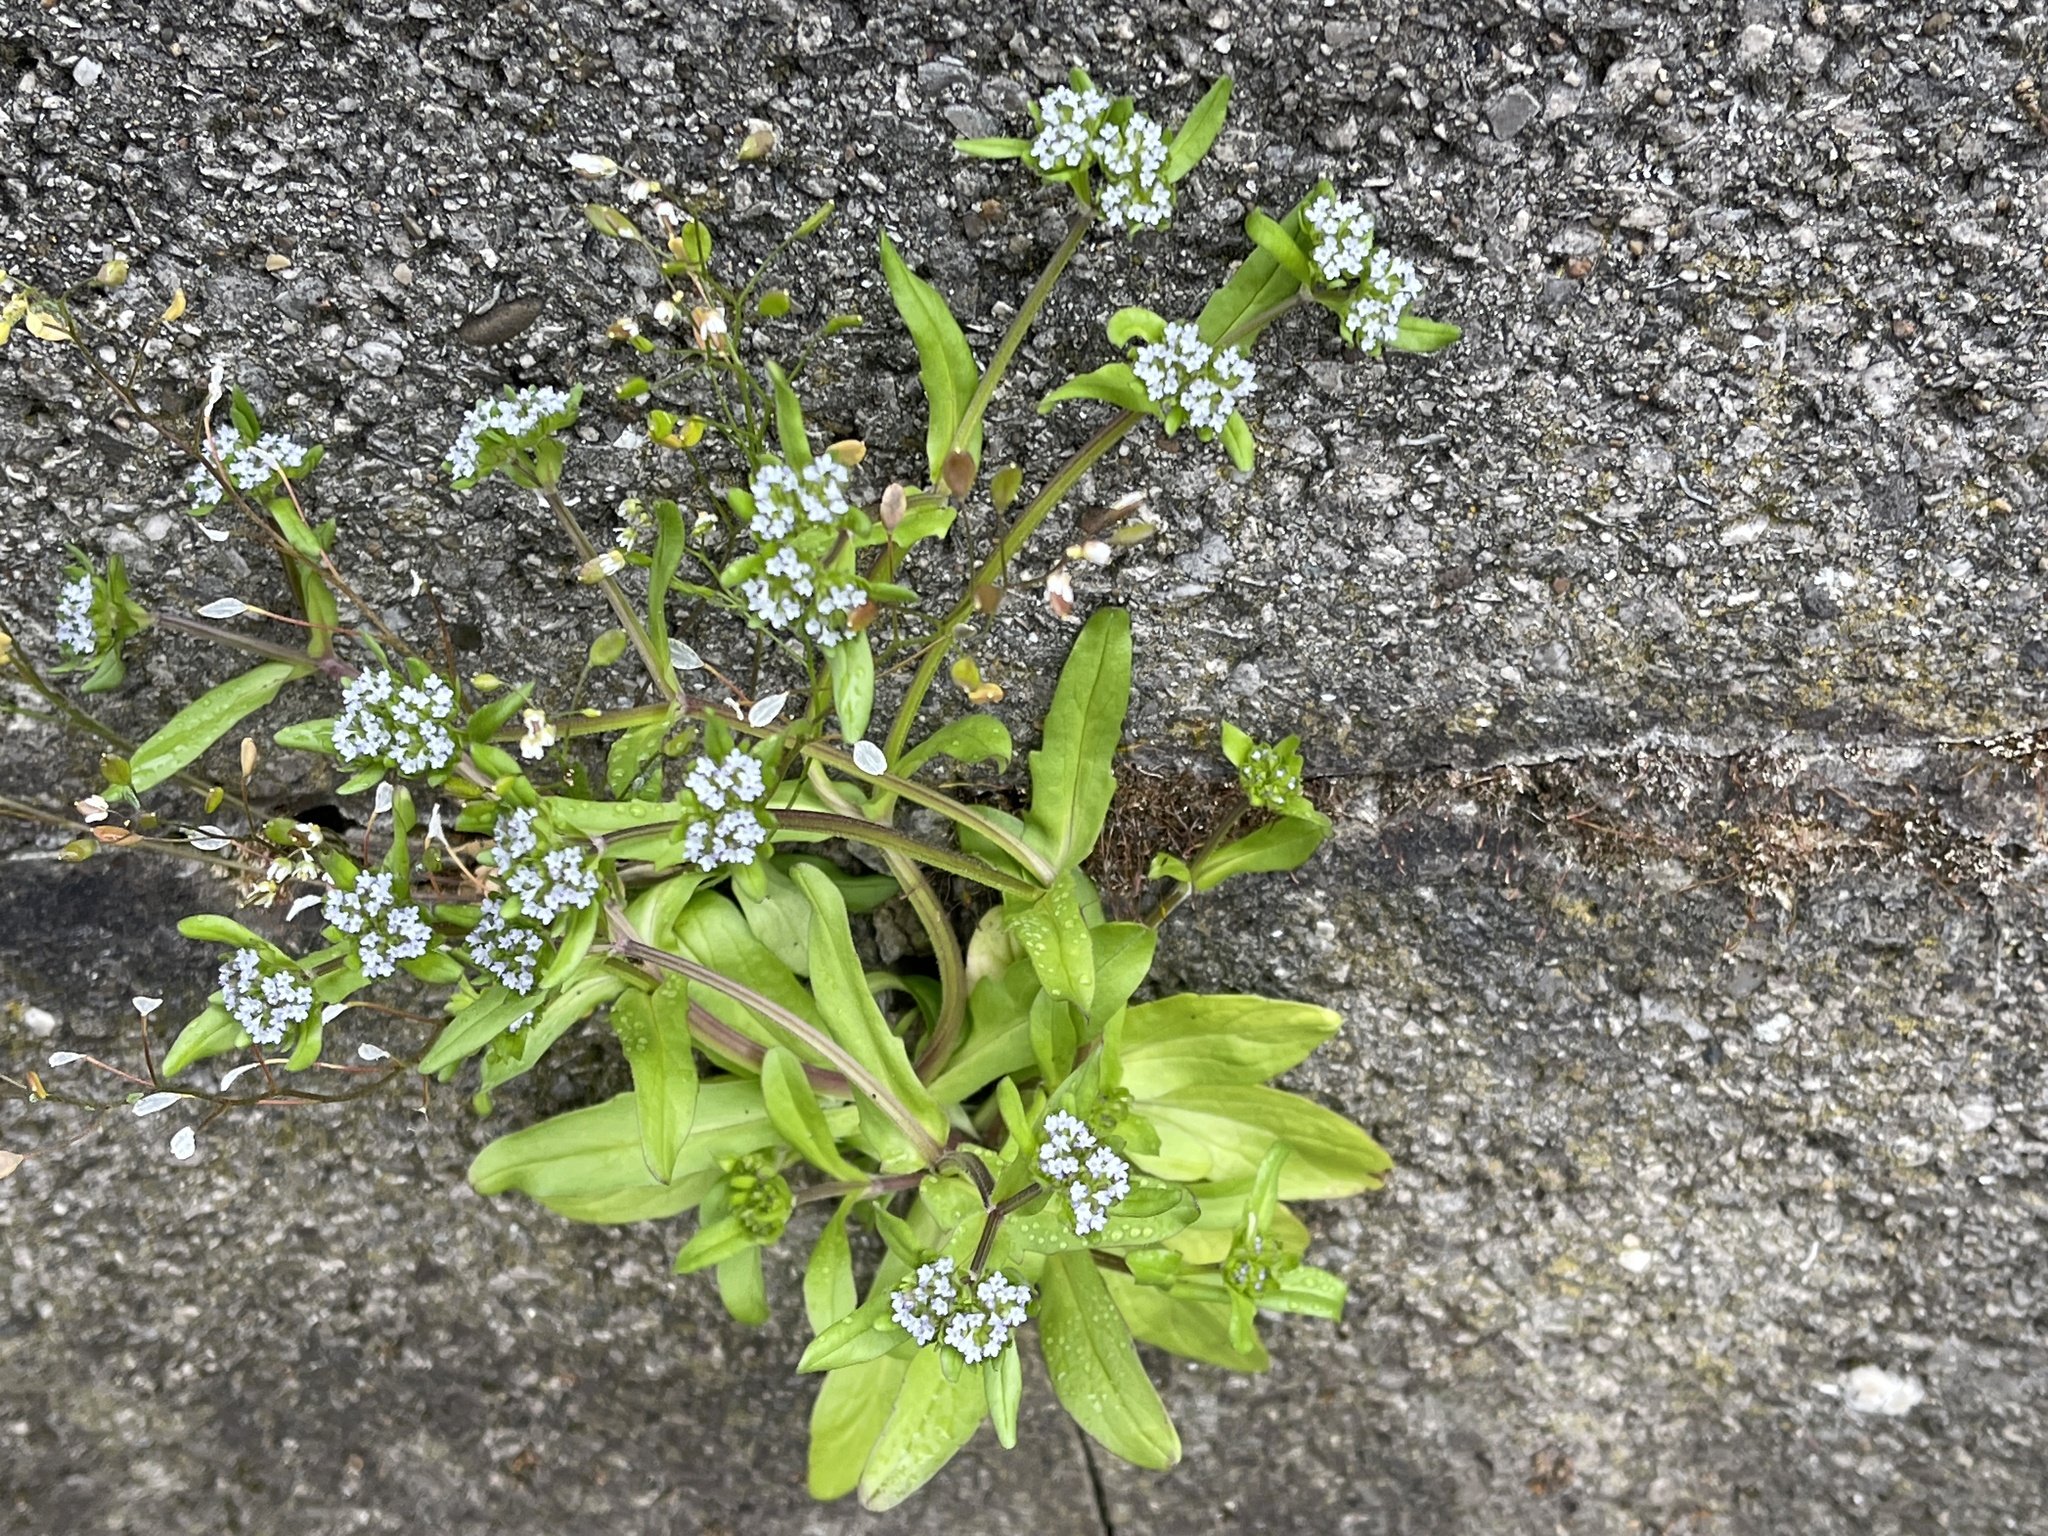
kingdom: Plantae
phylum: Tracheophyta
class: Magnoliopsida
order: Dipsacales
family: Caprifoliaceae
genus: Valerianella
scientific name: Valerianella locusta
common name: Common cornsalad
